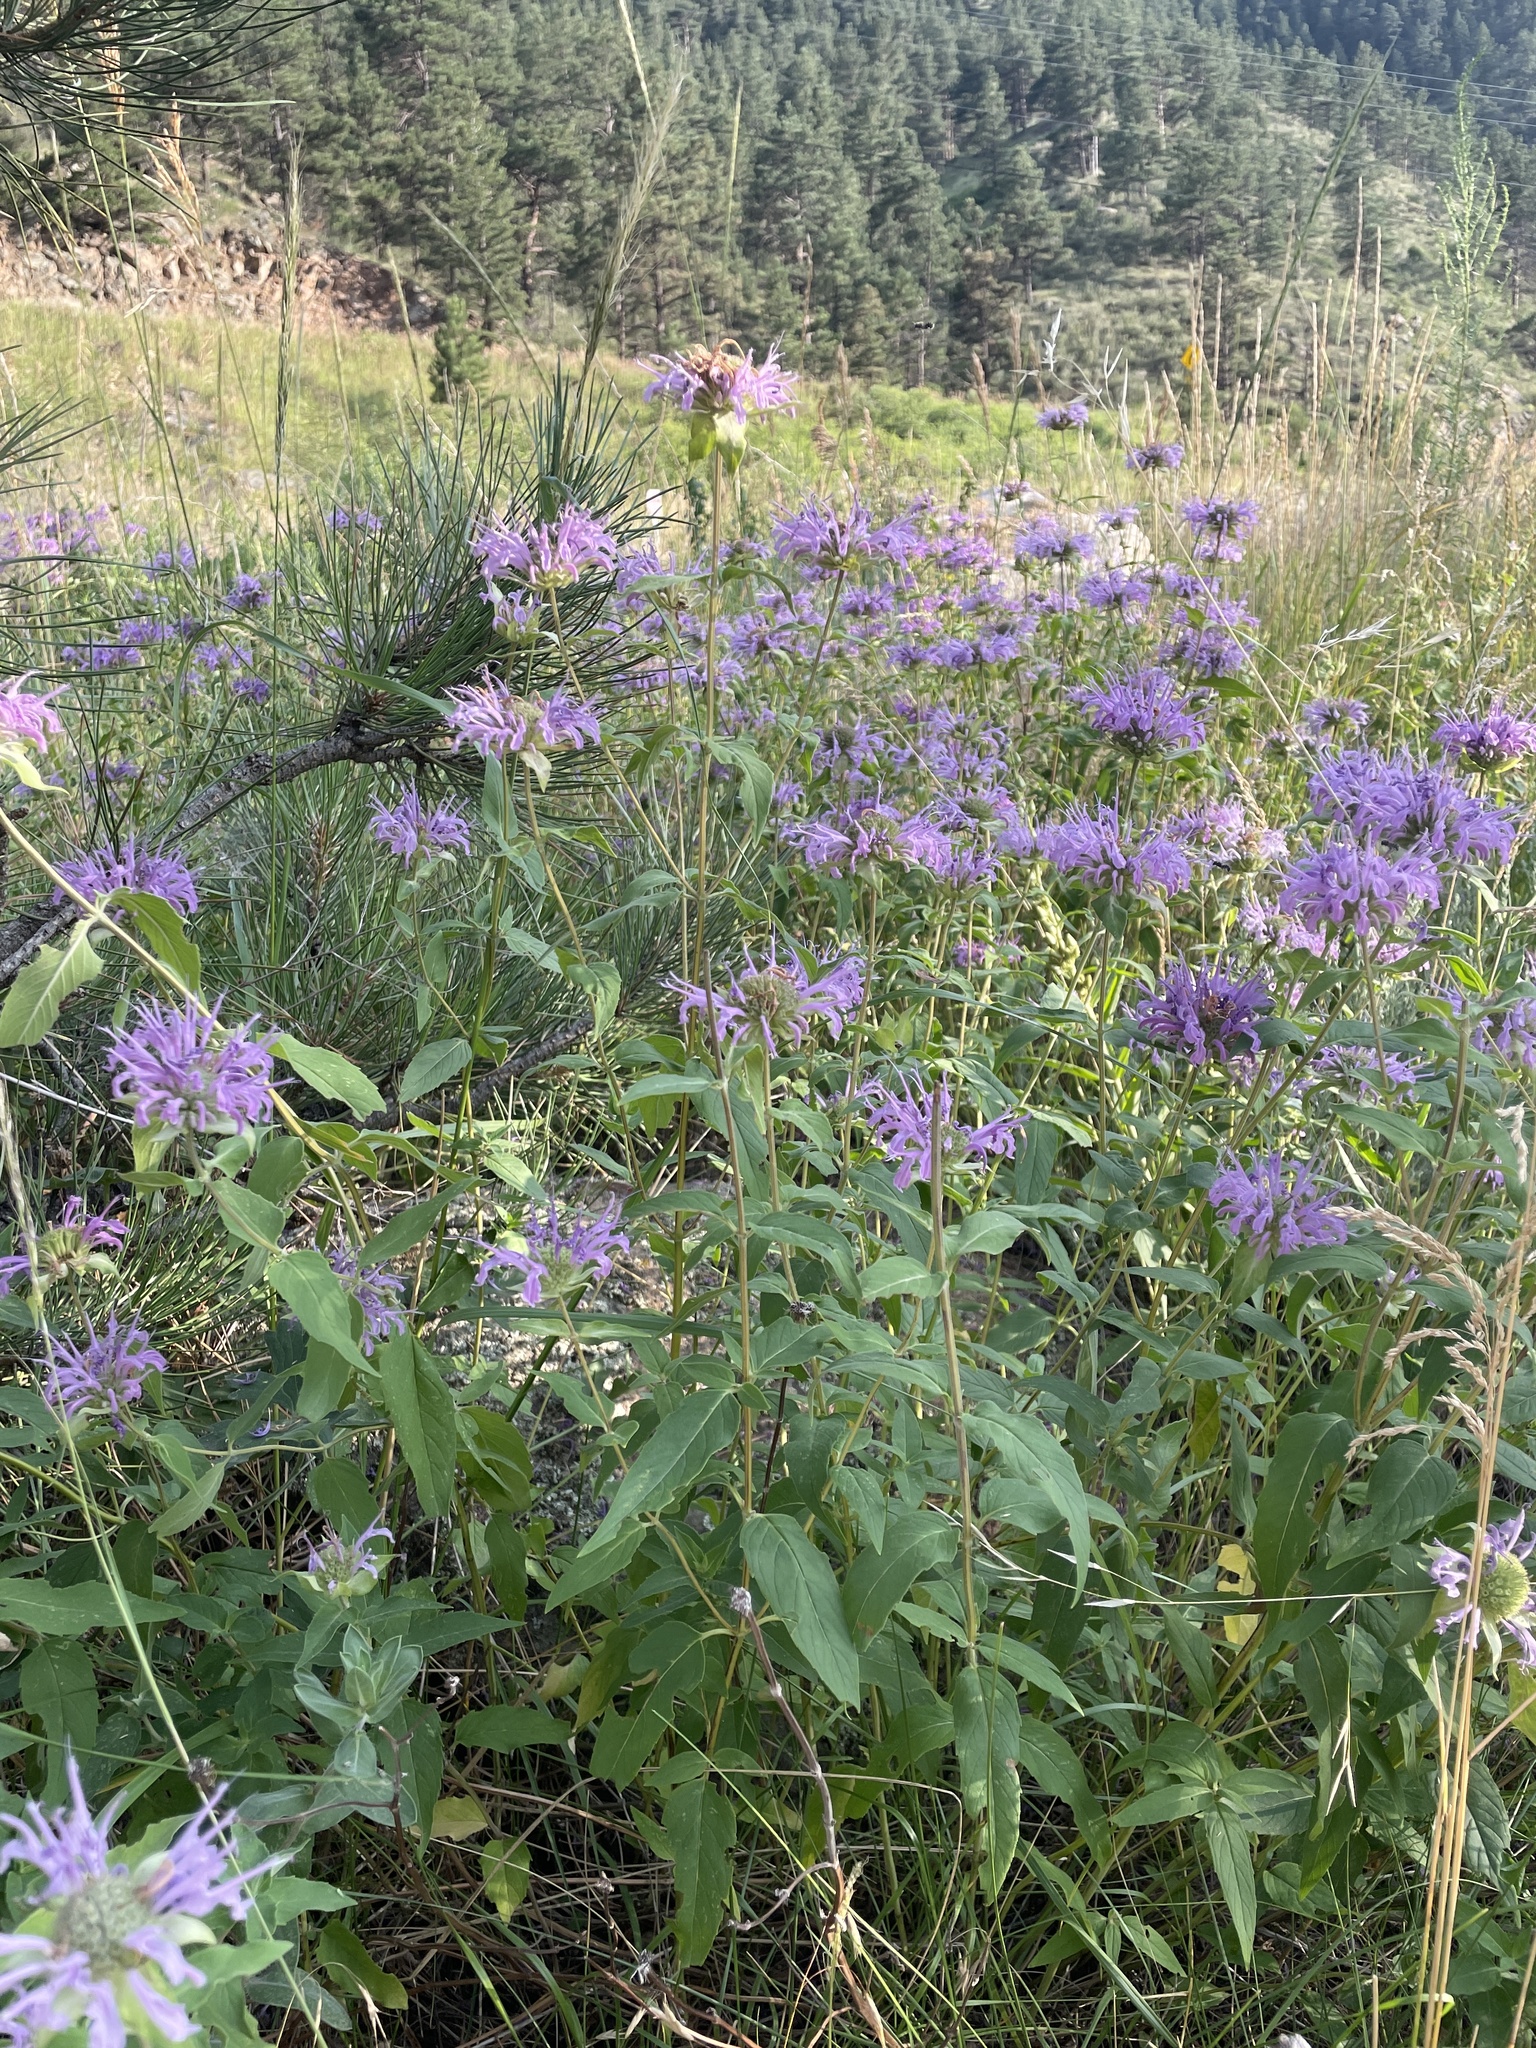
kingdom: Plantae
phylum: Tracheophyta
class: Magnoliopsida
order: Lamiales
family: Lamiaceae
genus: Monarda
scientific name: Monarda fistulosa
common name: Purple beebalm
